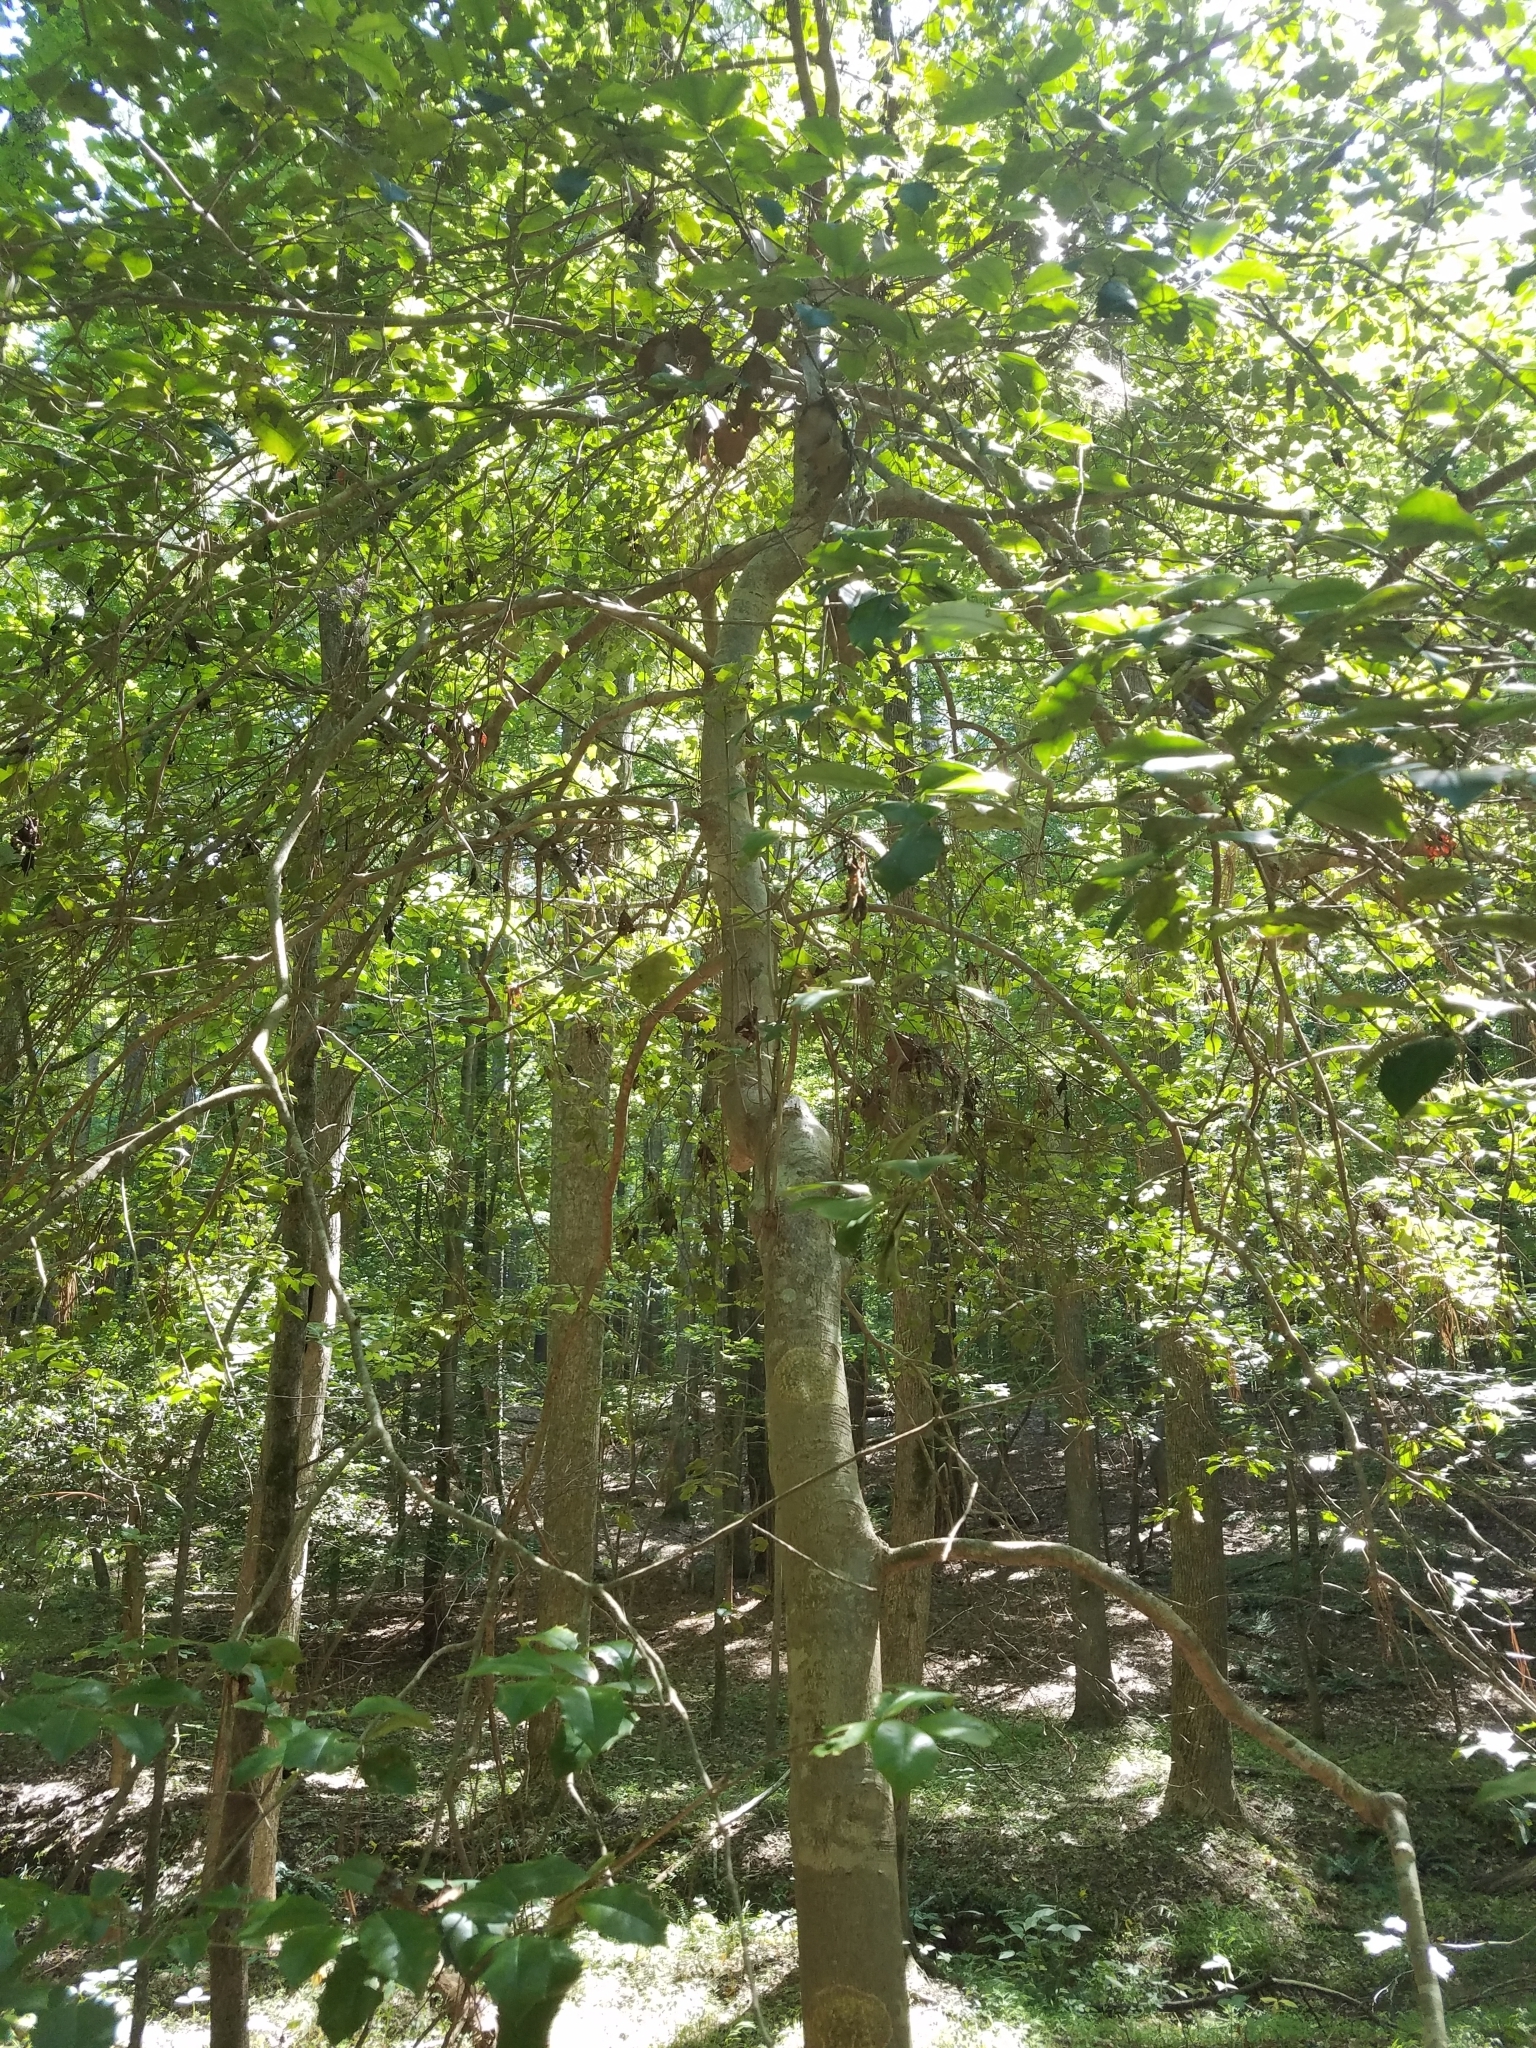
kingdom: Plantae
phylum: Tracheophyta
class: Magnoliopsida
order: Aquifoliales
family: Aquifoliaceae
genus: Ilex
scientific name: Ilex opaca
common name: American holly
